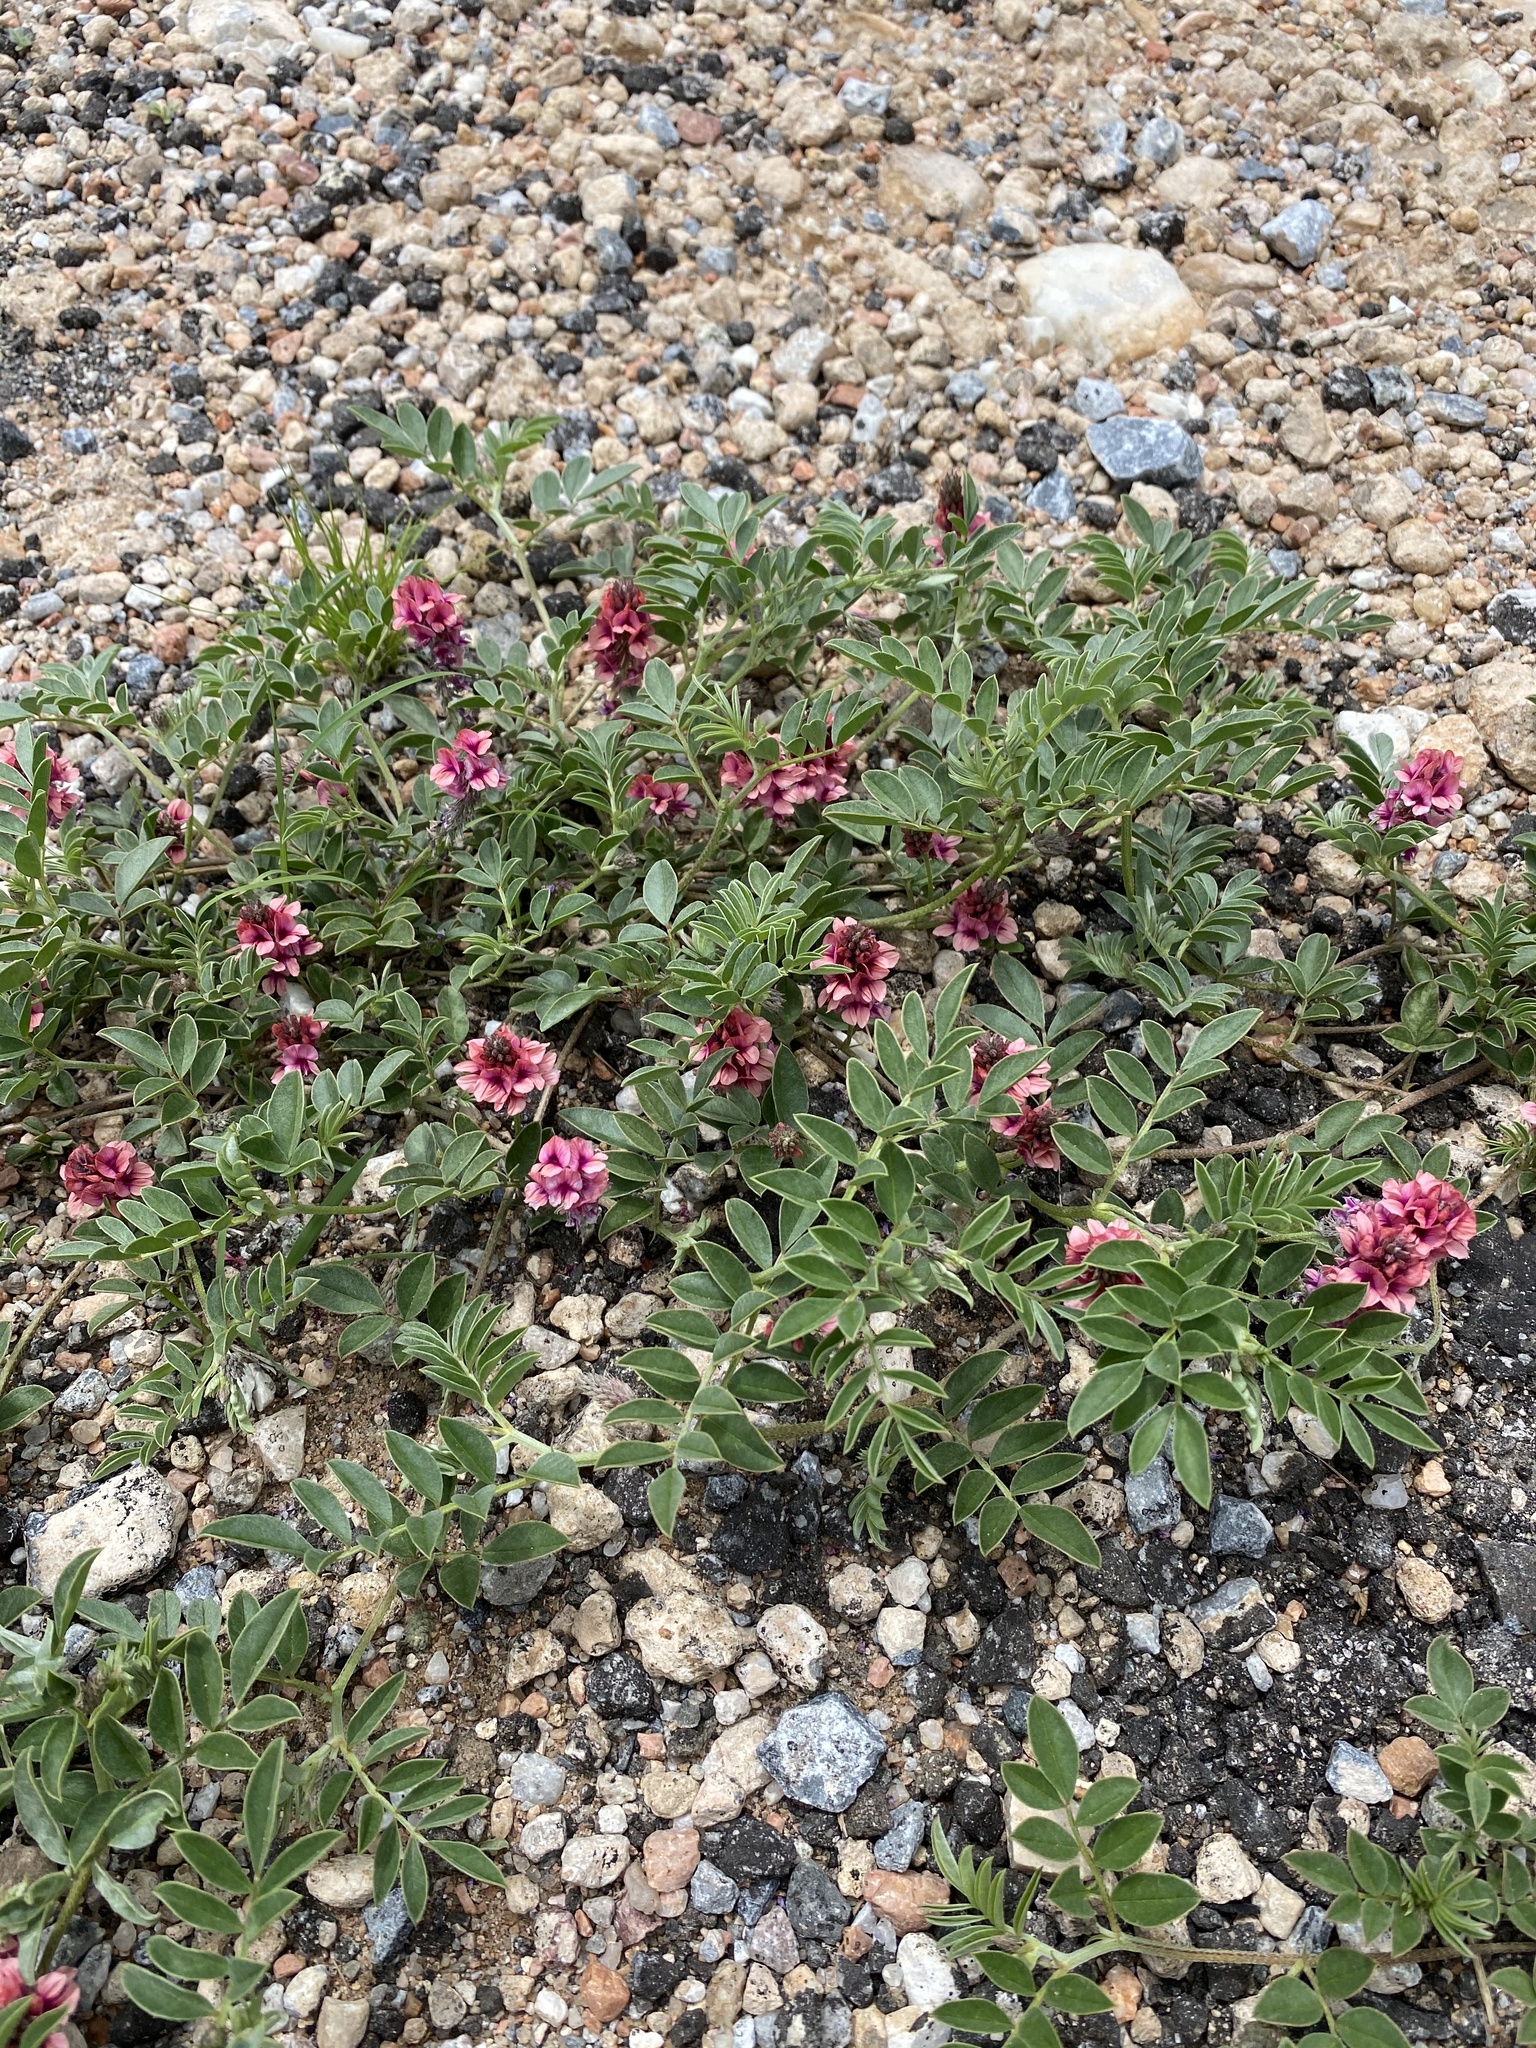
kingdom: Plantae
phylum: Tracheophyta
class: Magnoliopsida
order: Fabales
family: Fabaceae
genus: Indigofera
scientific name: Indigofera auricoma
